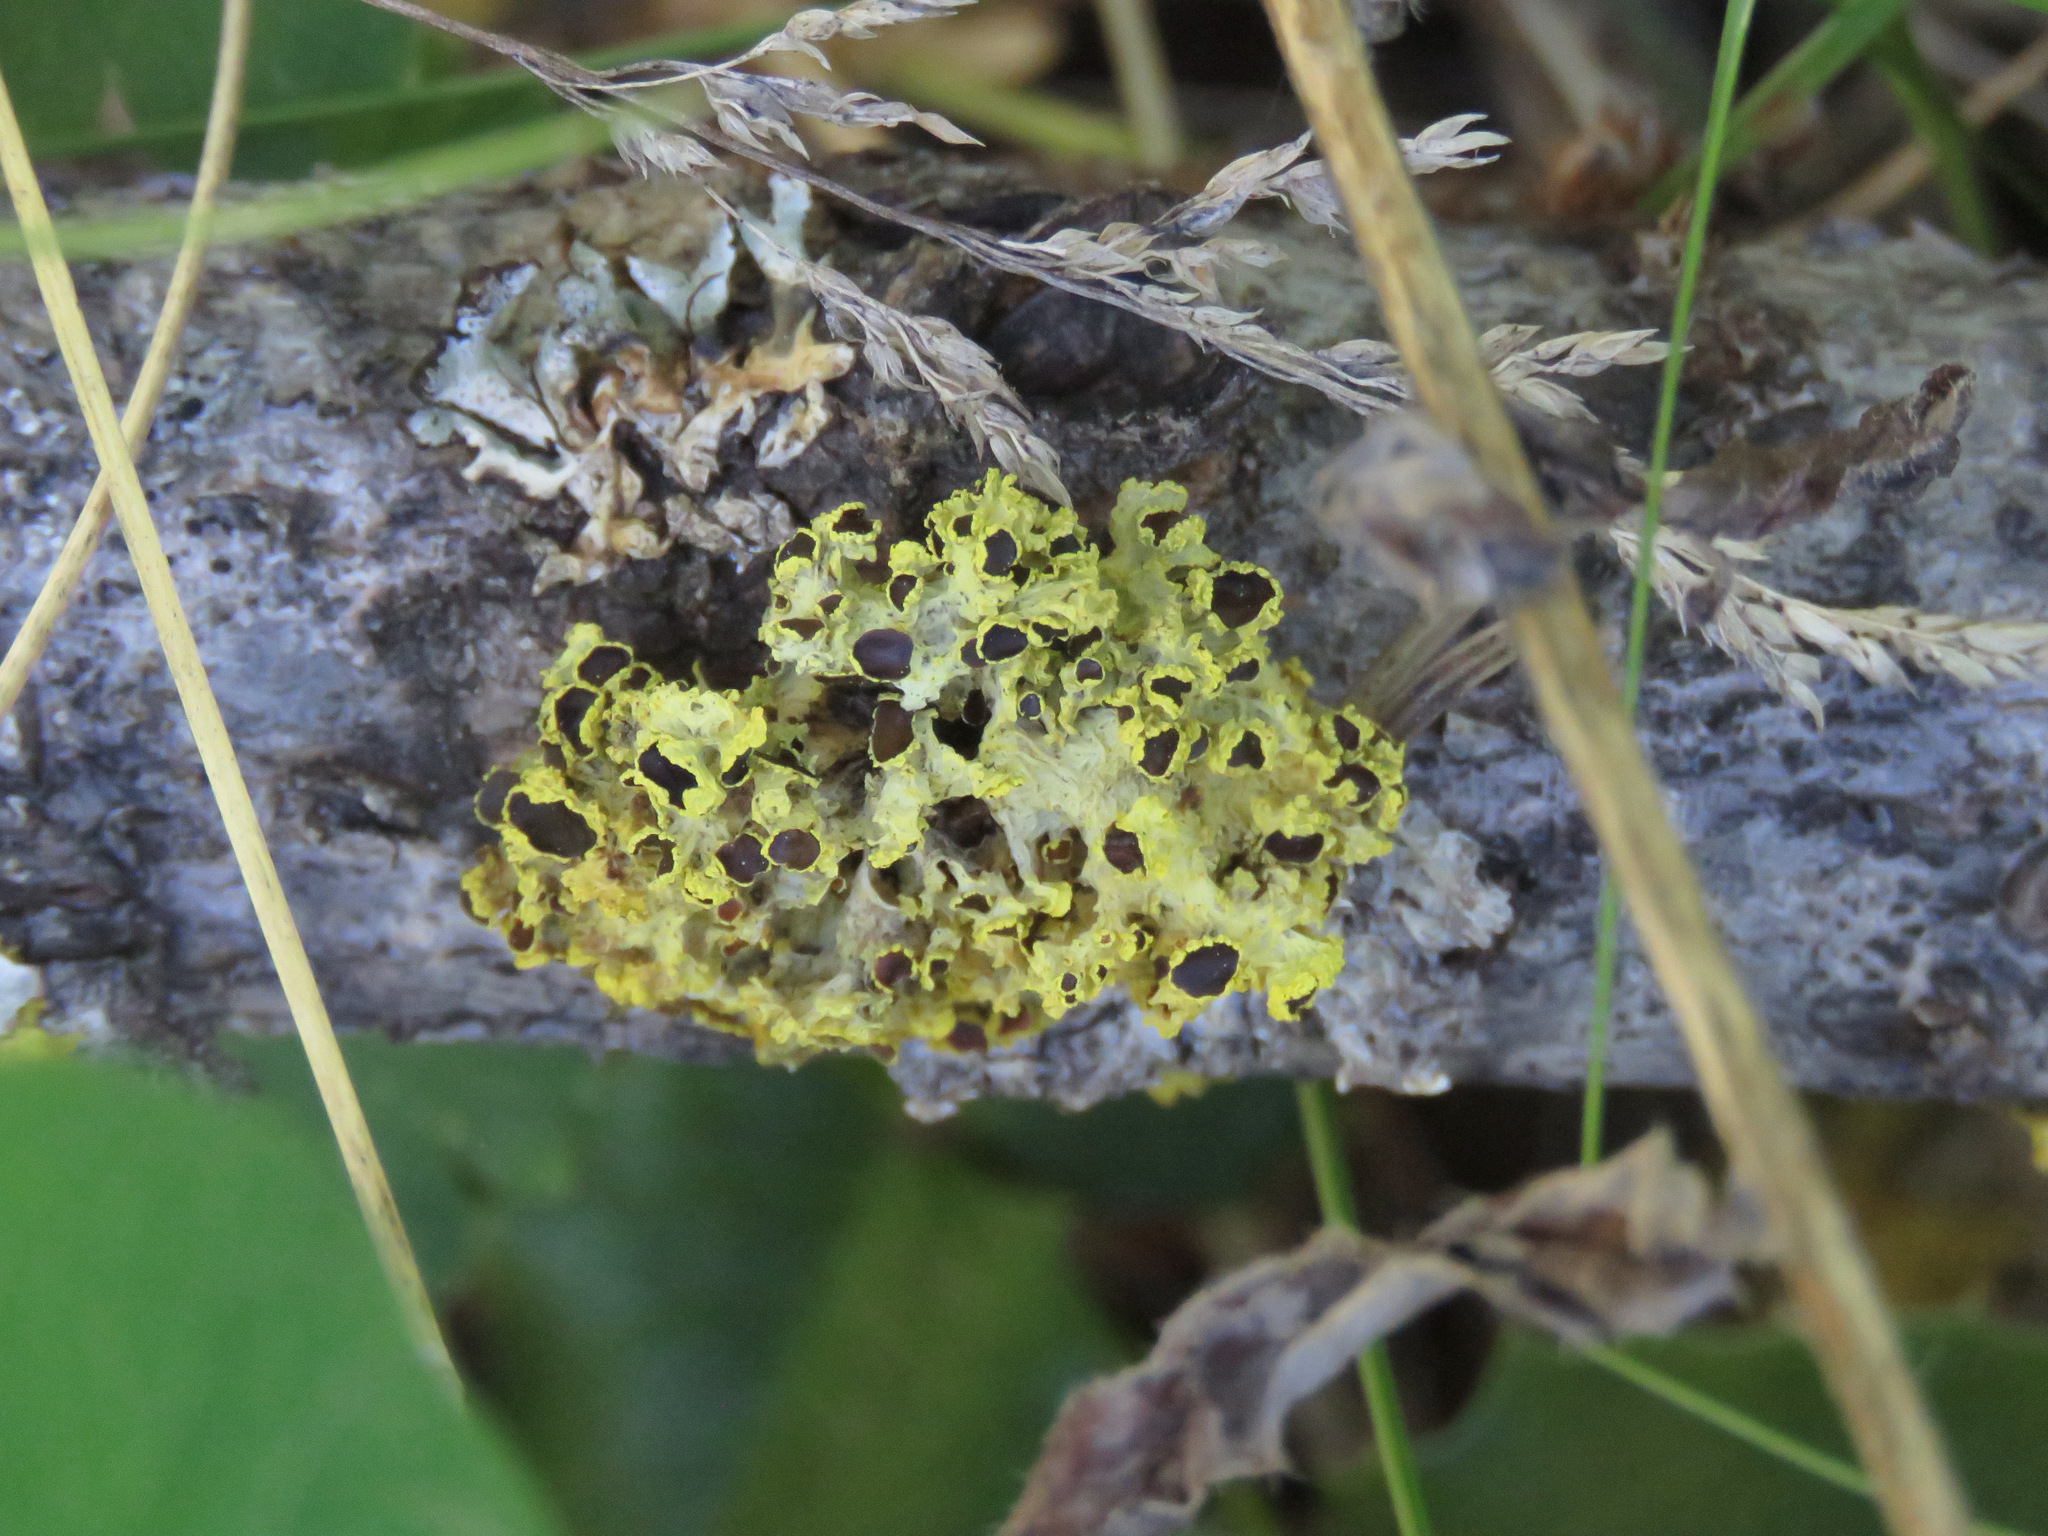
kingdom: Fungi
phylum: Ascomycota
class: Lecanoromycetes
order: Lecanorales
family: Parmeliaceae
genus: Vulpicida
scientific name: Vulpicida canadensis
